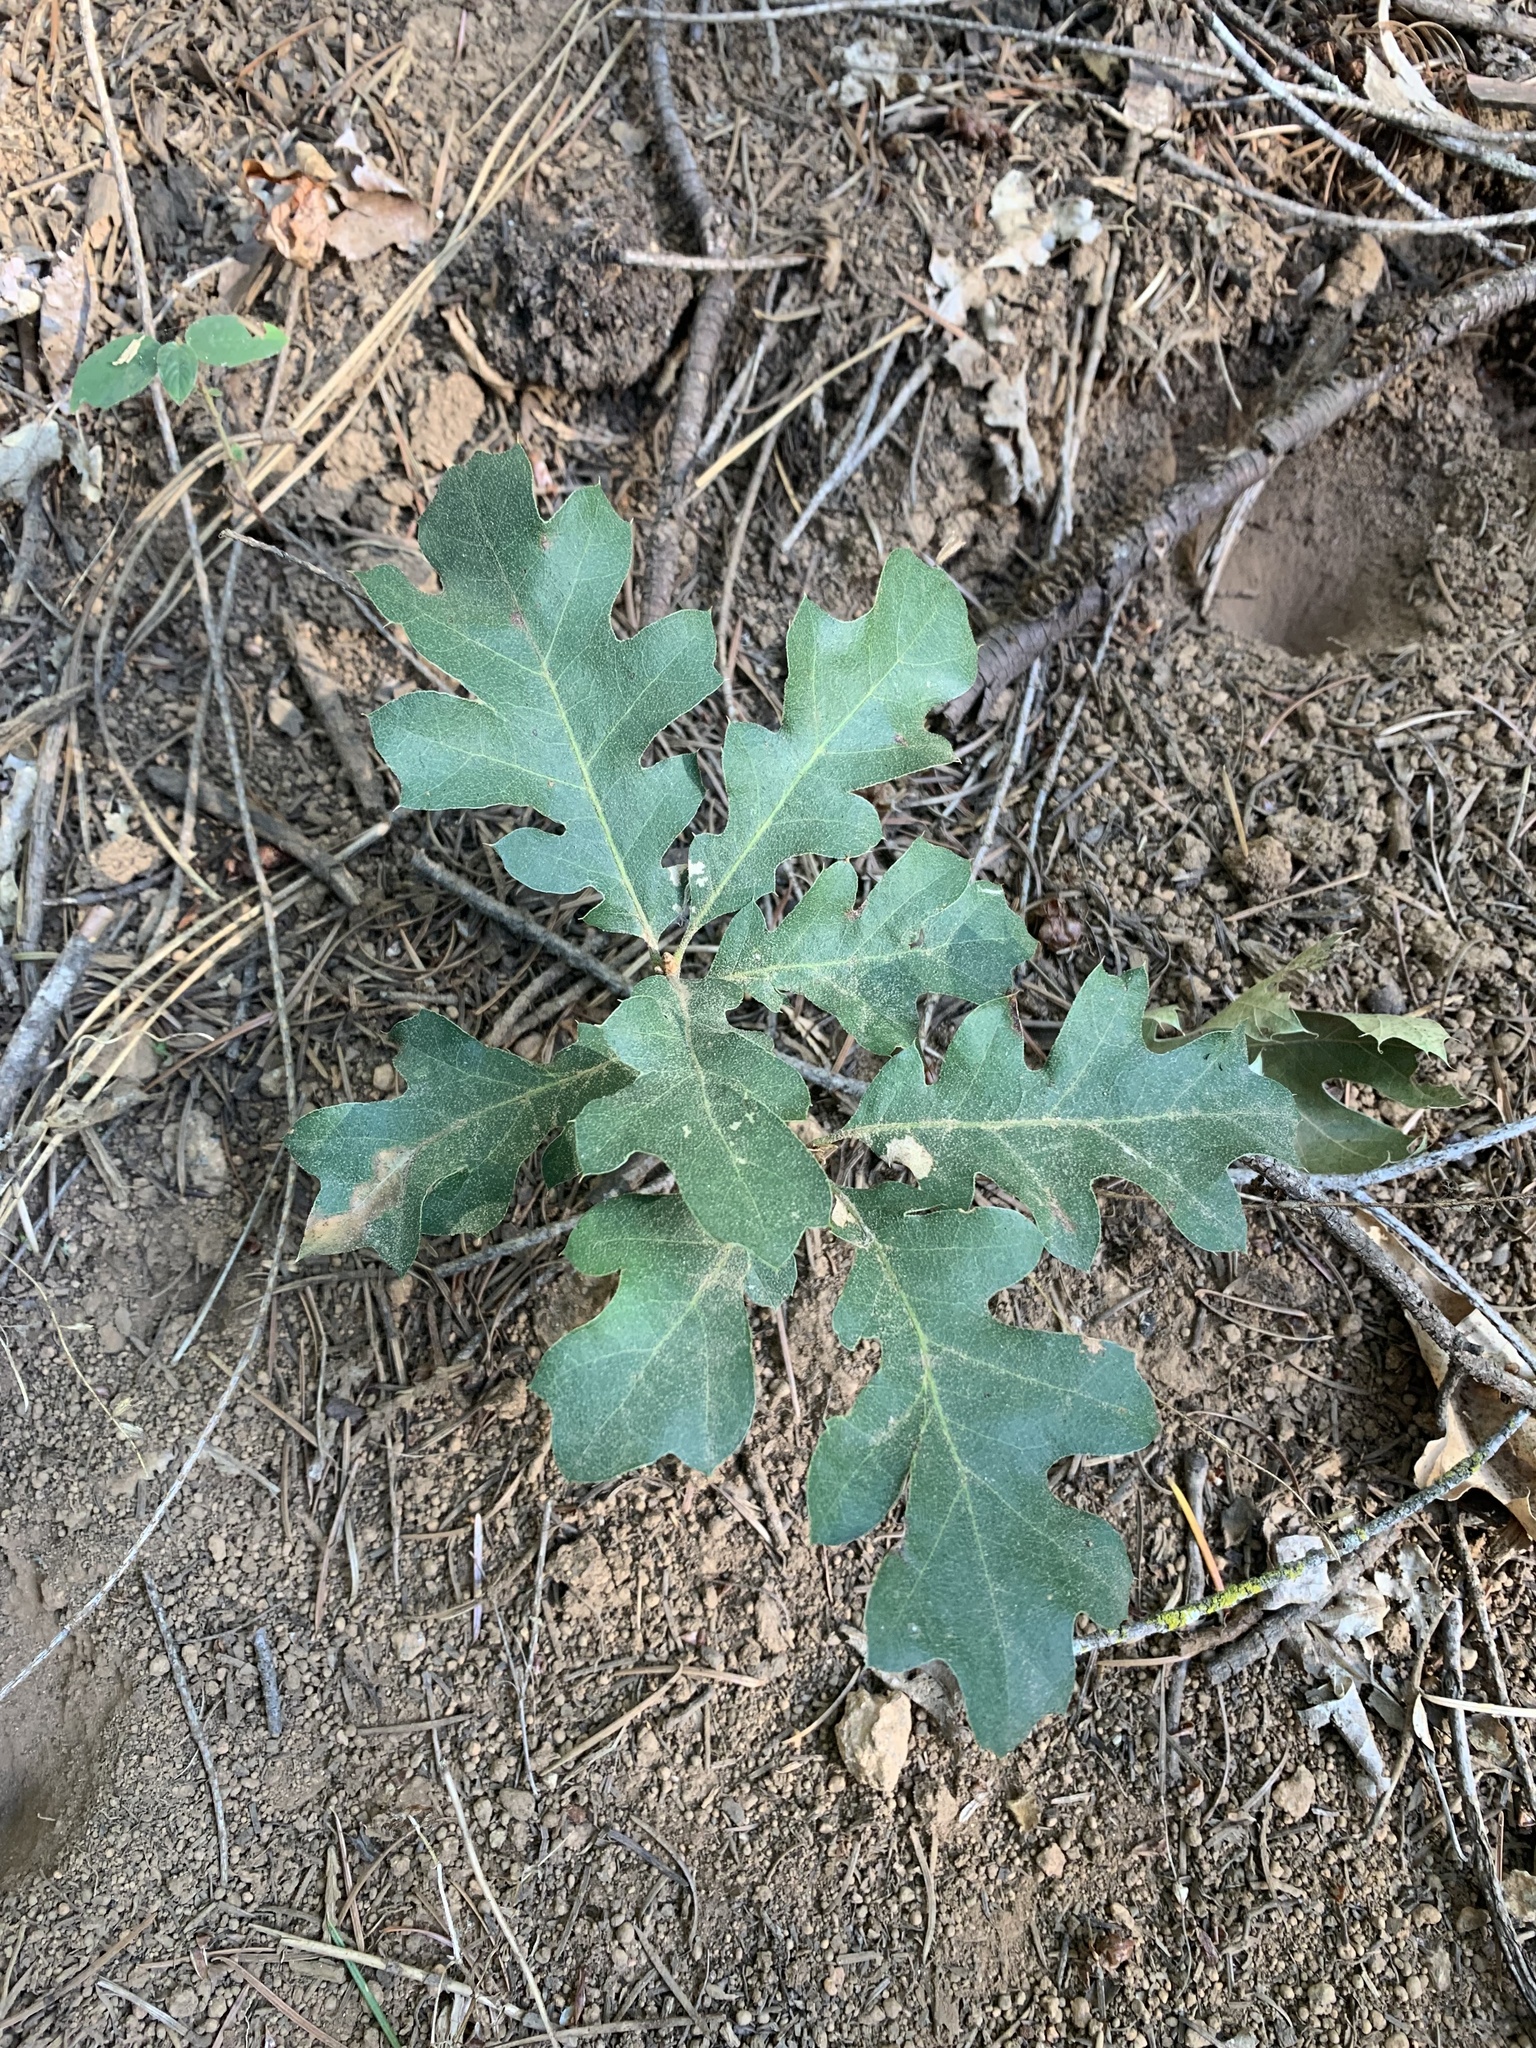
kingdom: Plantae
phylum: Tracheophyta
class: Magnoliopsida
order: Fagales
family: Fagaceae
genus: Quercus
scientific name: Quercus kelloggii
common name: California black oak
